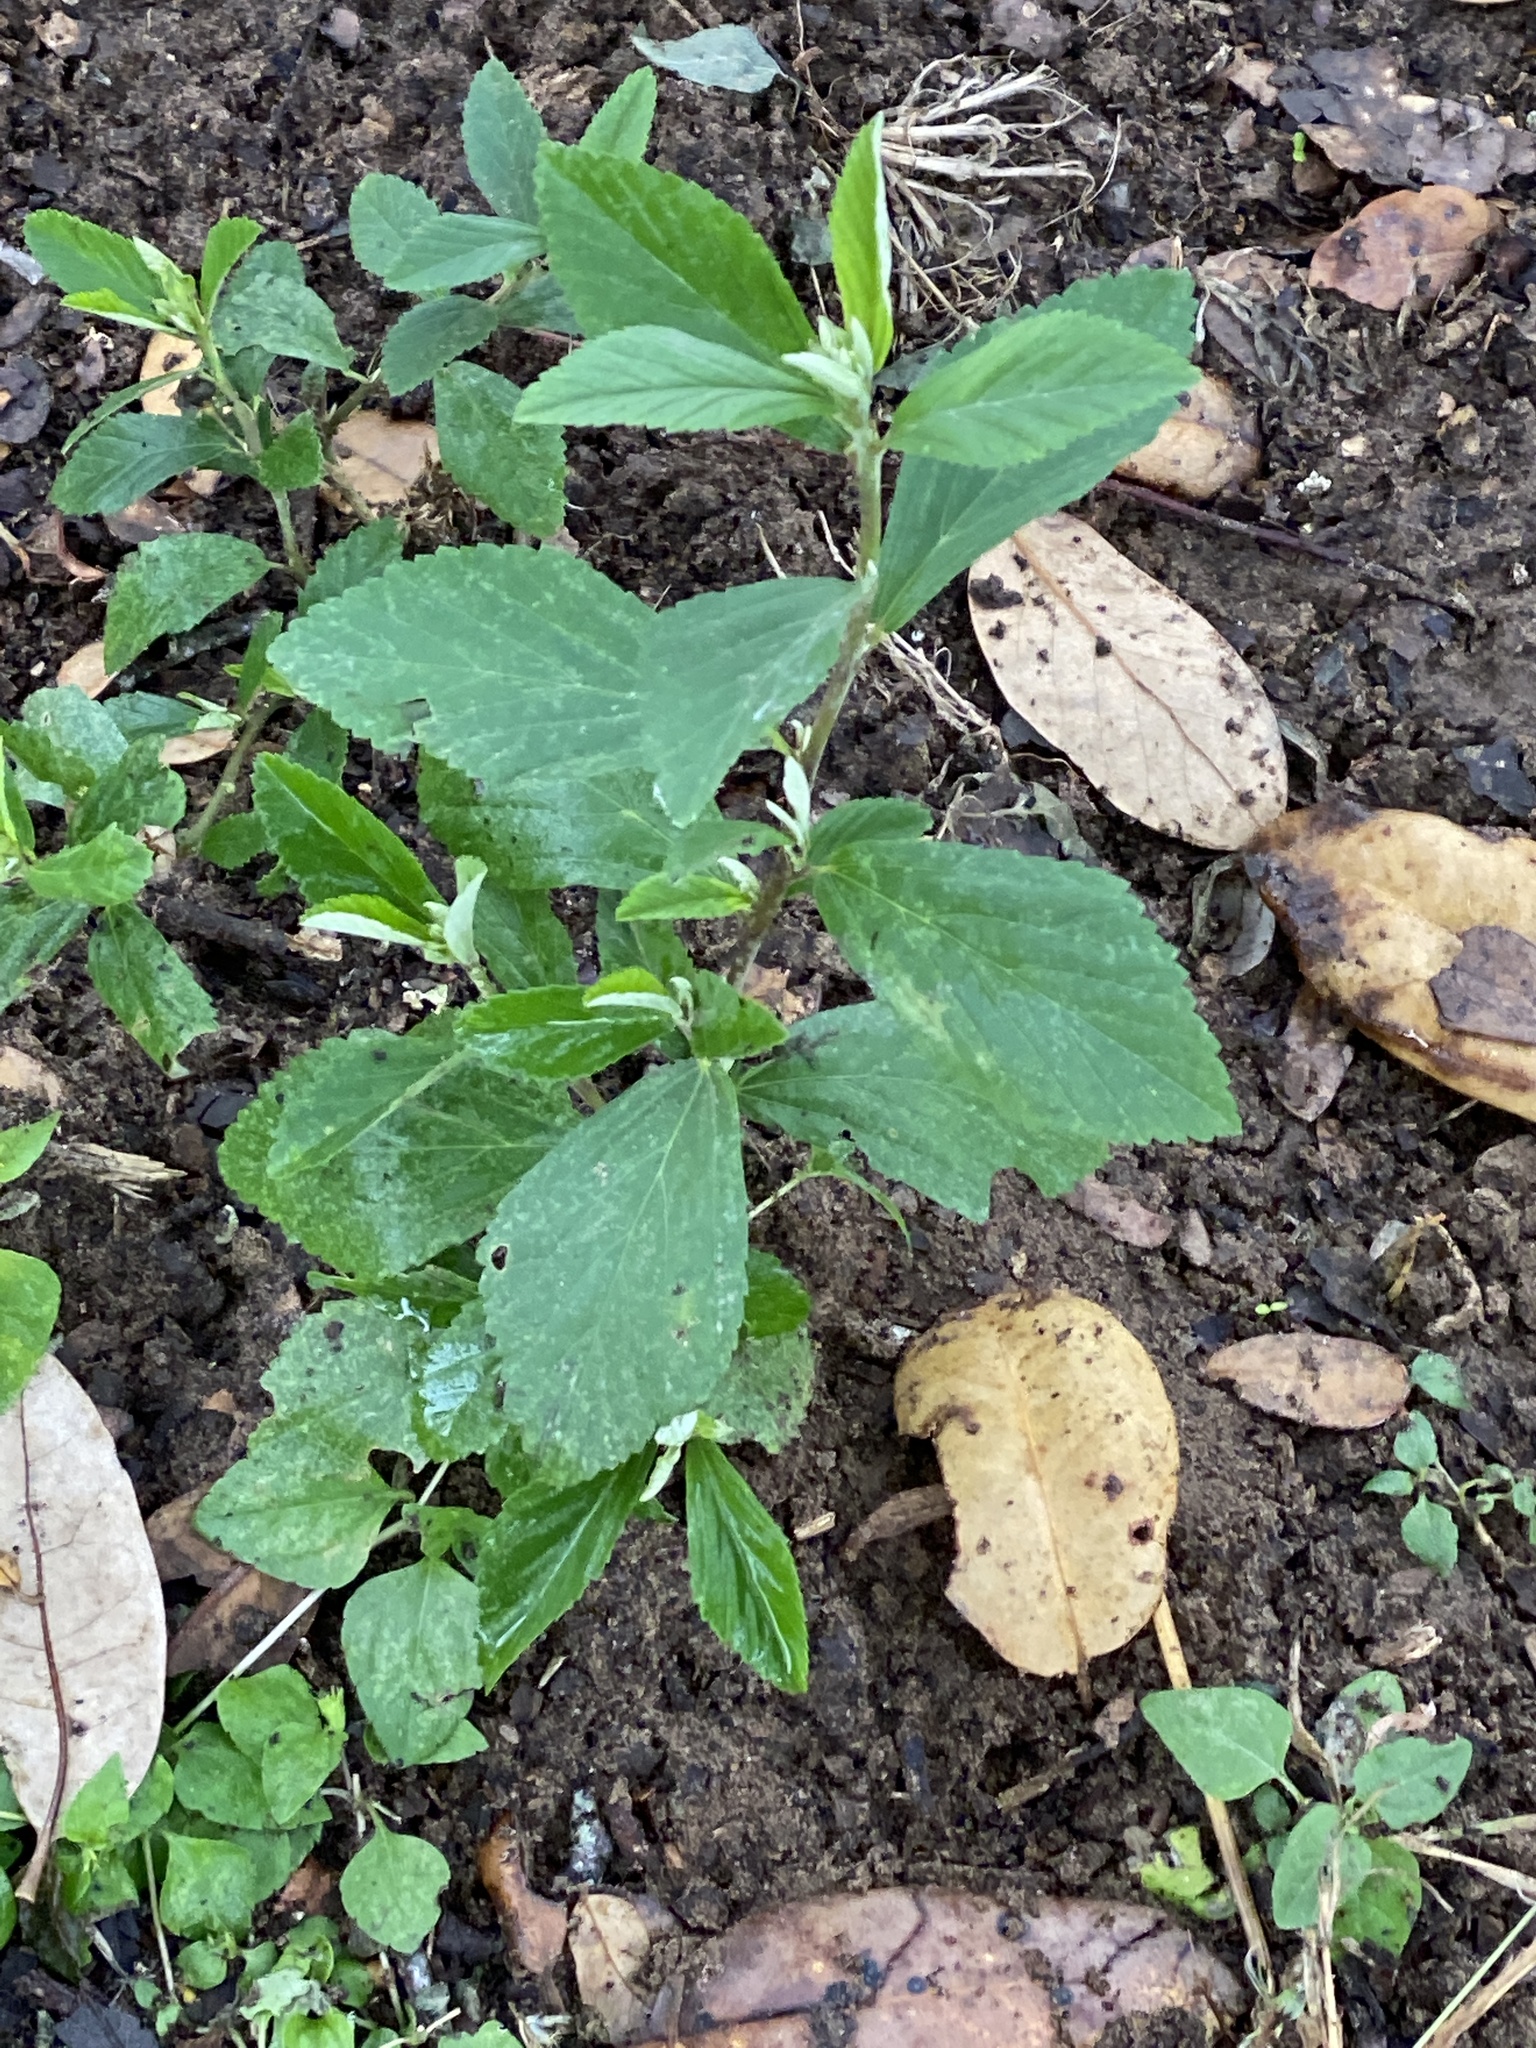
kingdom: Plantae
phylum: Tracheophyta
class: Magnoliopsida
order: Malvales
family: Malvaceae
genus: Sida
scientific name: Sida rhombifolia
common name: Queensland-hemp
